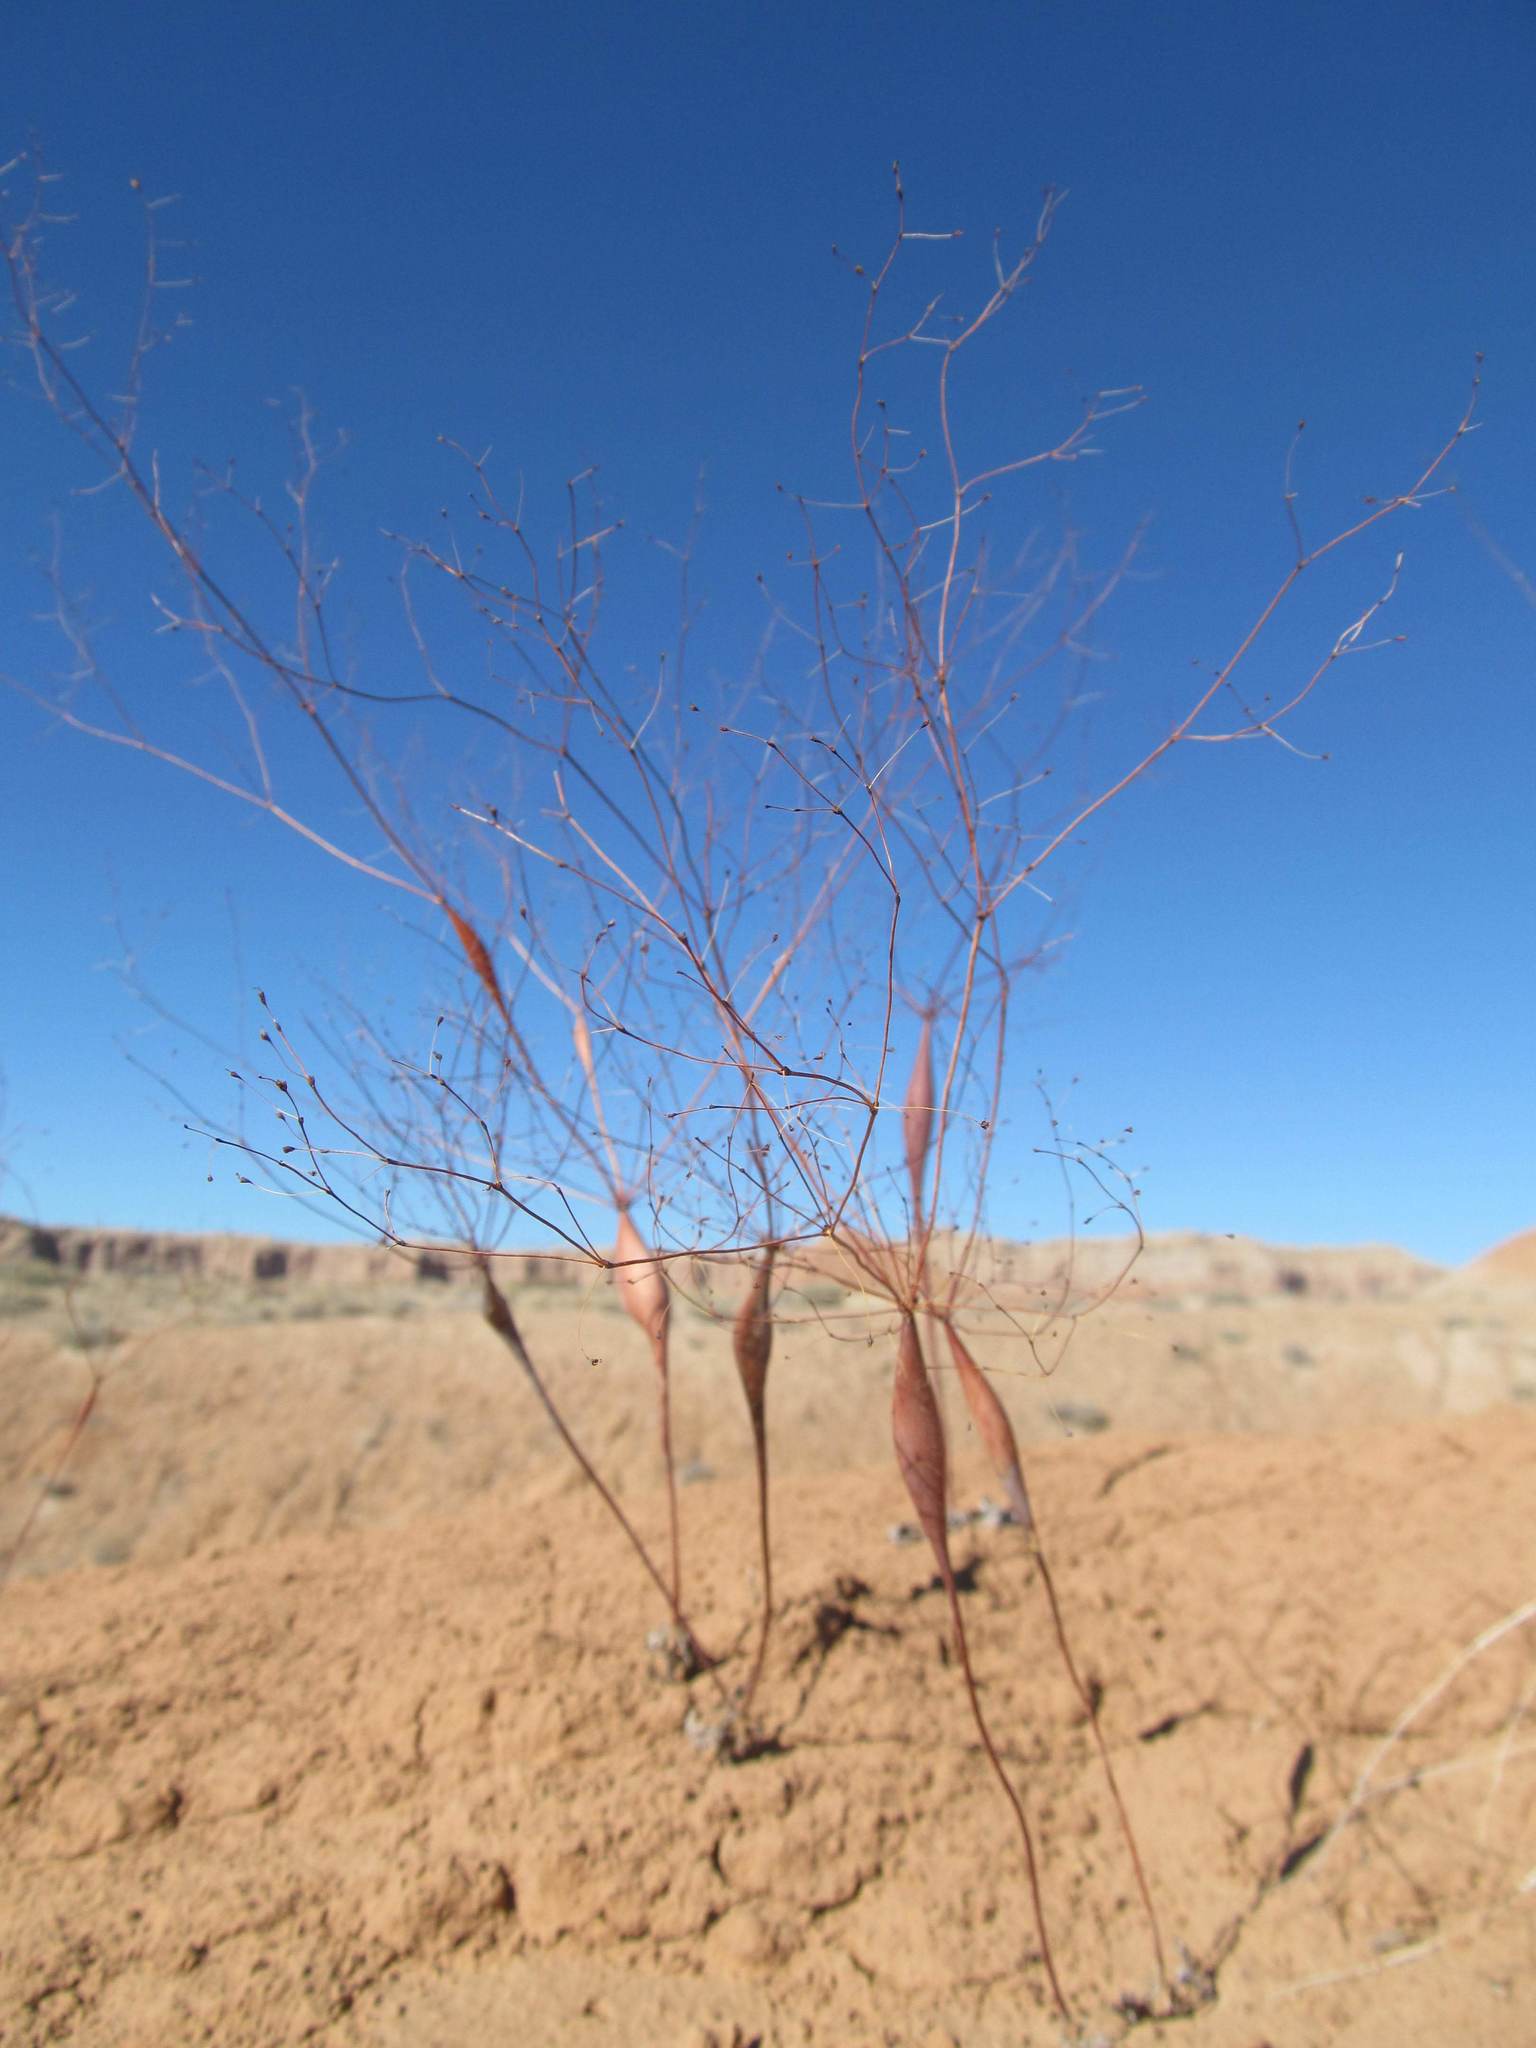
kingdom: Plantae
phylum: Tracheophyta
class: Magnoliopsida
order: Caryophyllales
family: Polygonaceae
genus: Eriogonum
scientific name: Eriogonum inflatum
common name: Desert trumpet
